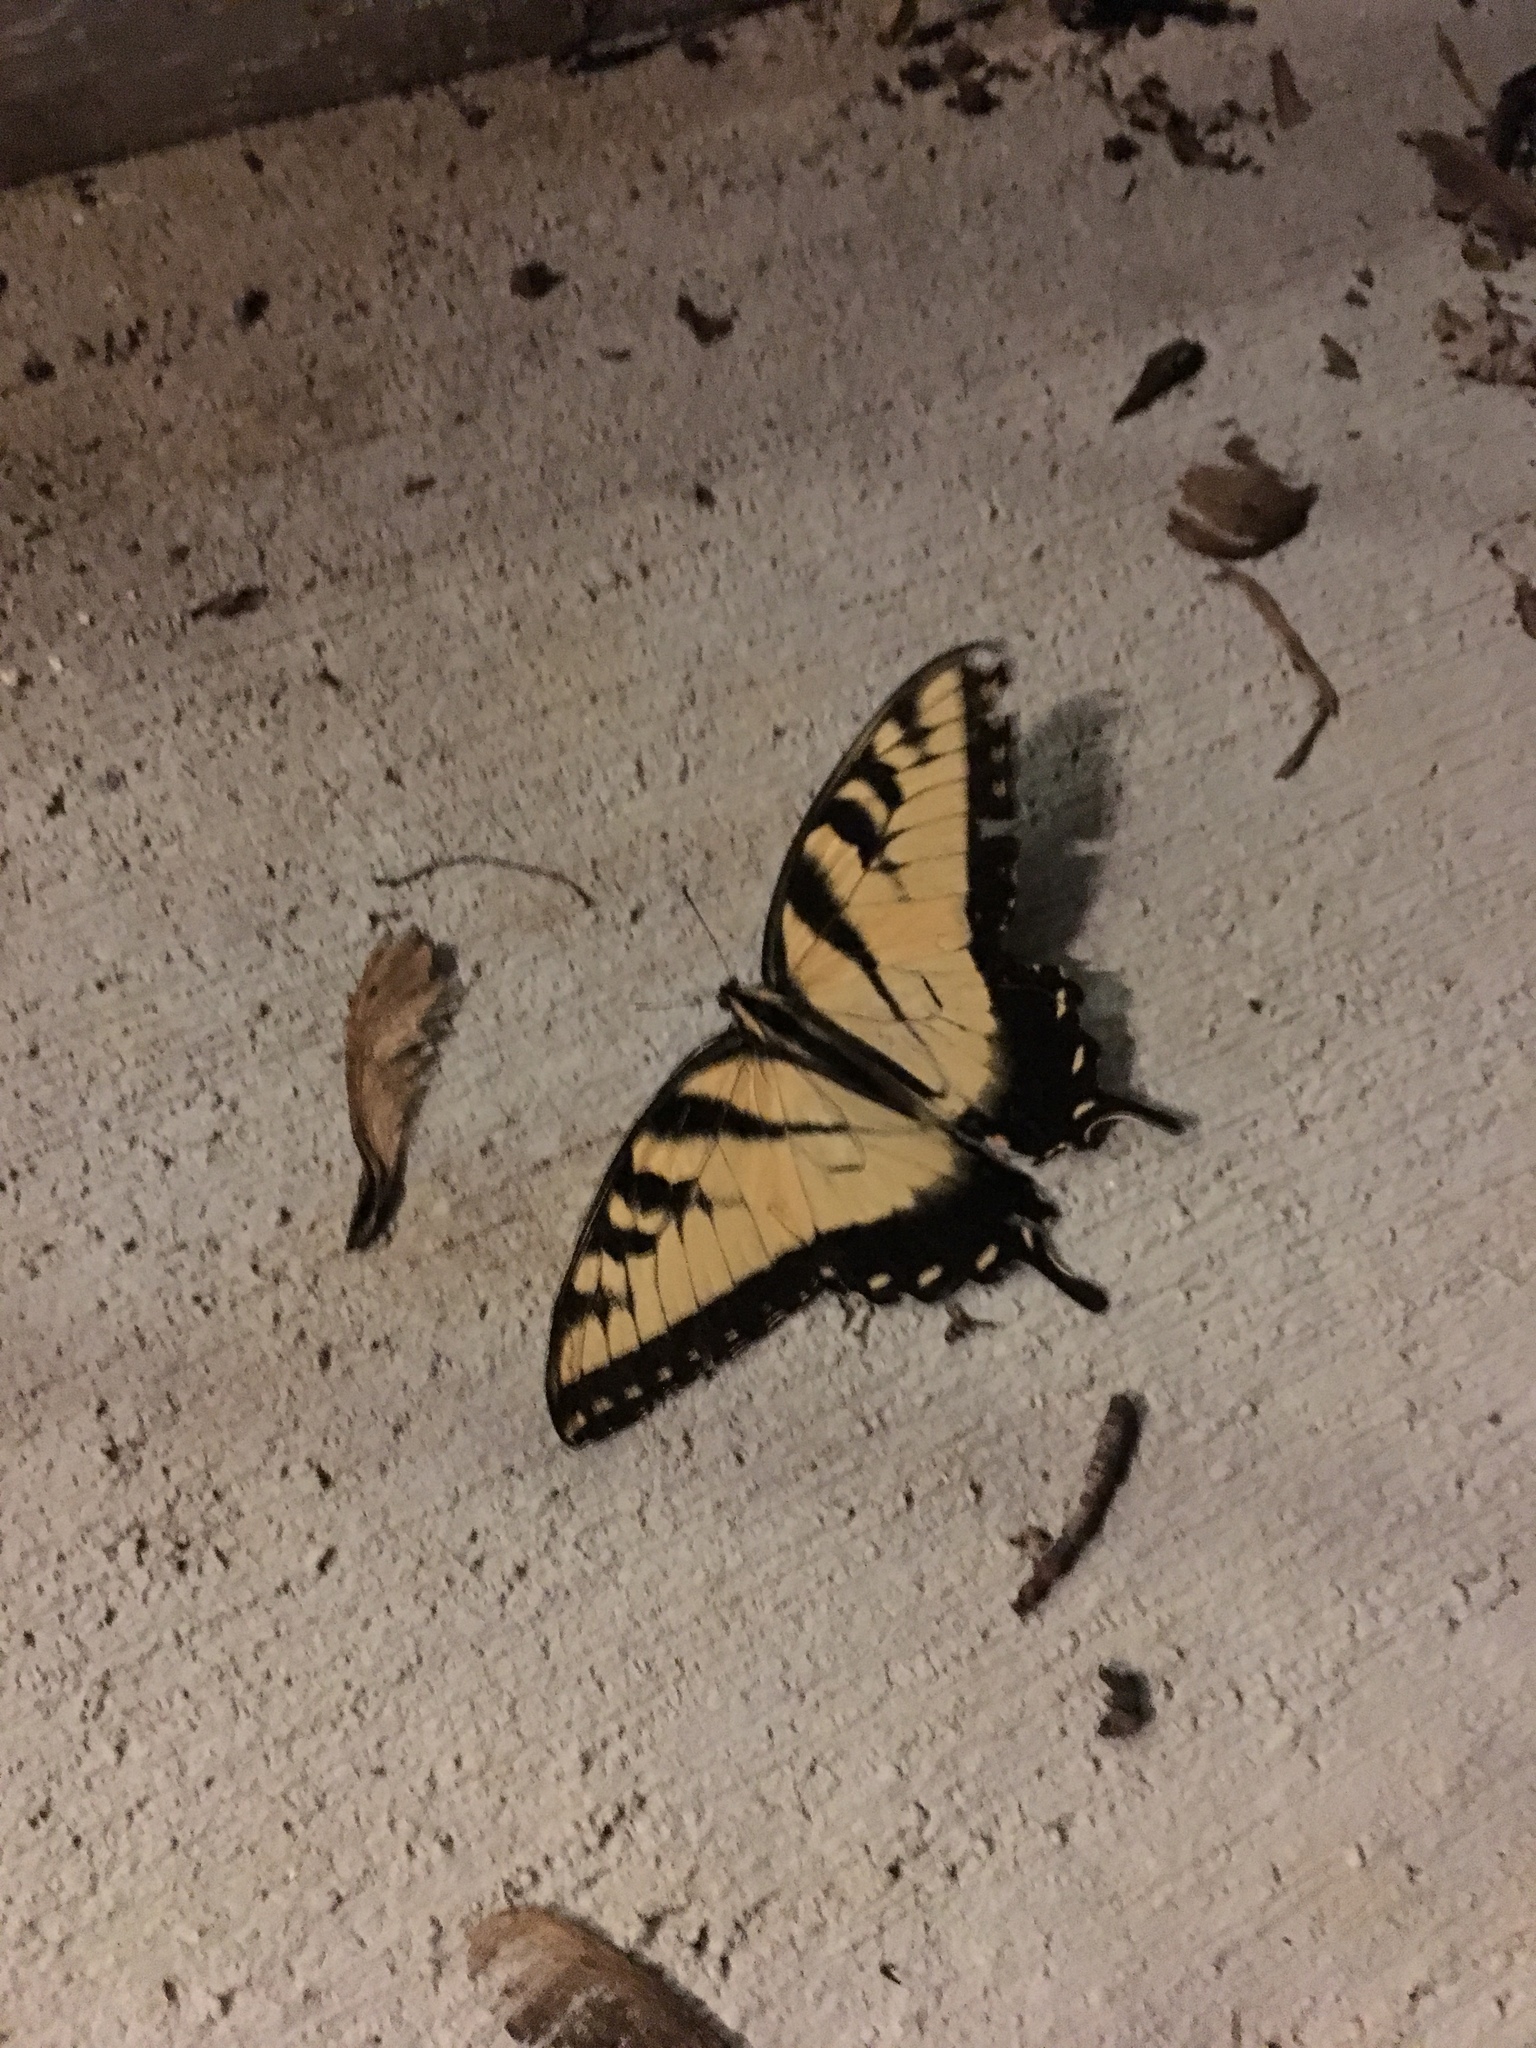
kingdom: Animalia
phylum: Arthropoda
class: Insecta
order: Lepidoptera
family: Papilionidae
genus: Papilio
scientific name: Papilio glaucus
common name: Tiger swallowtail
